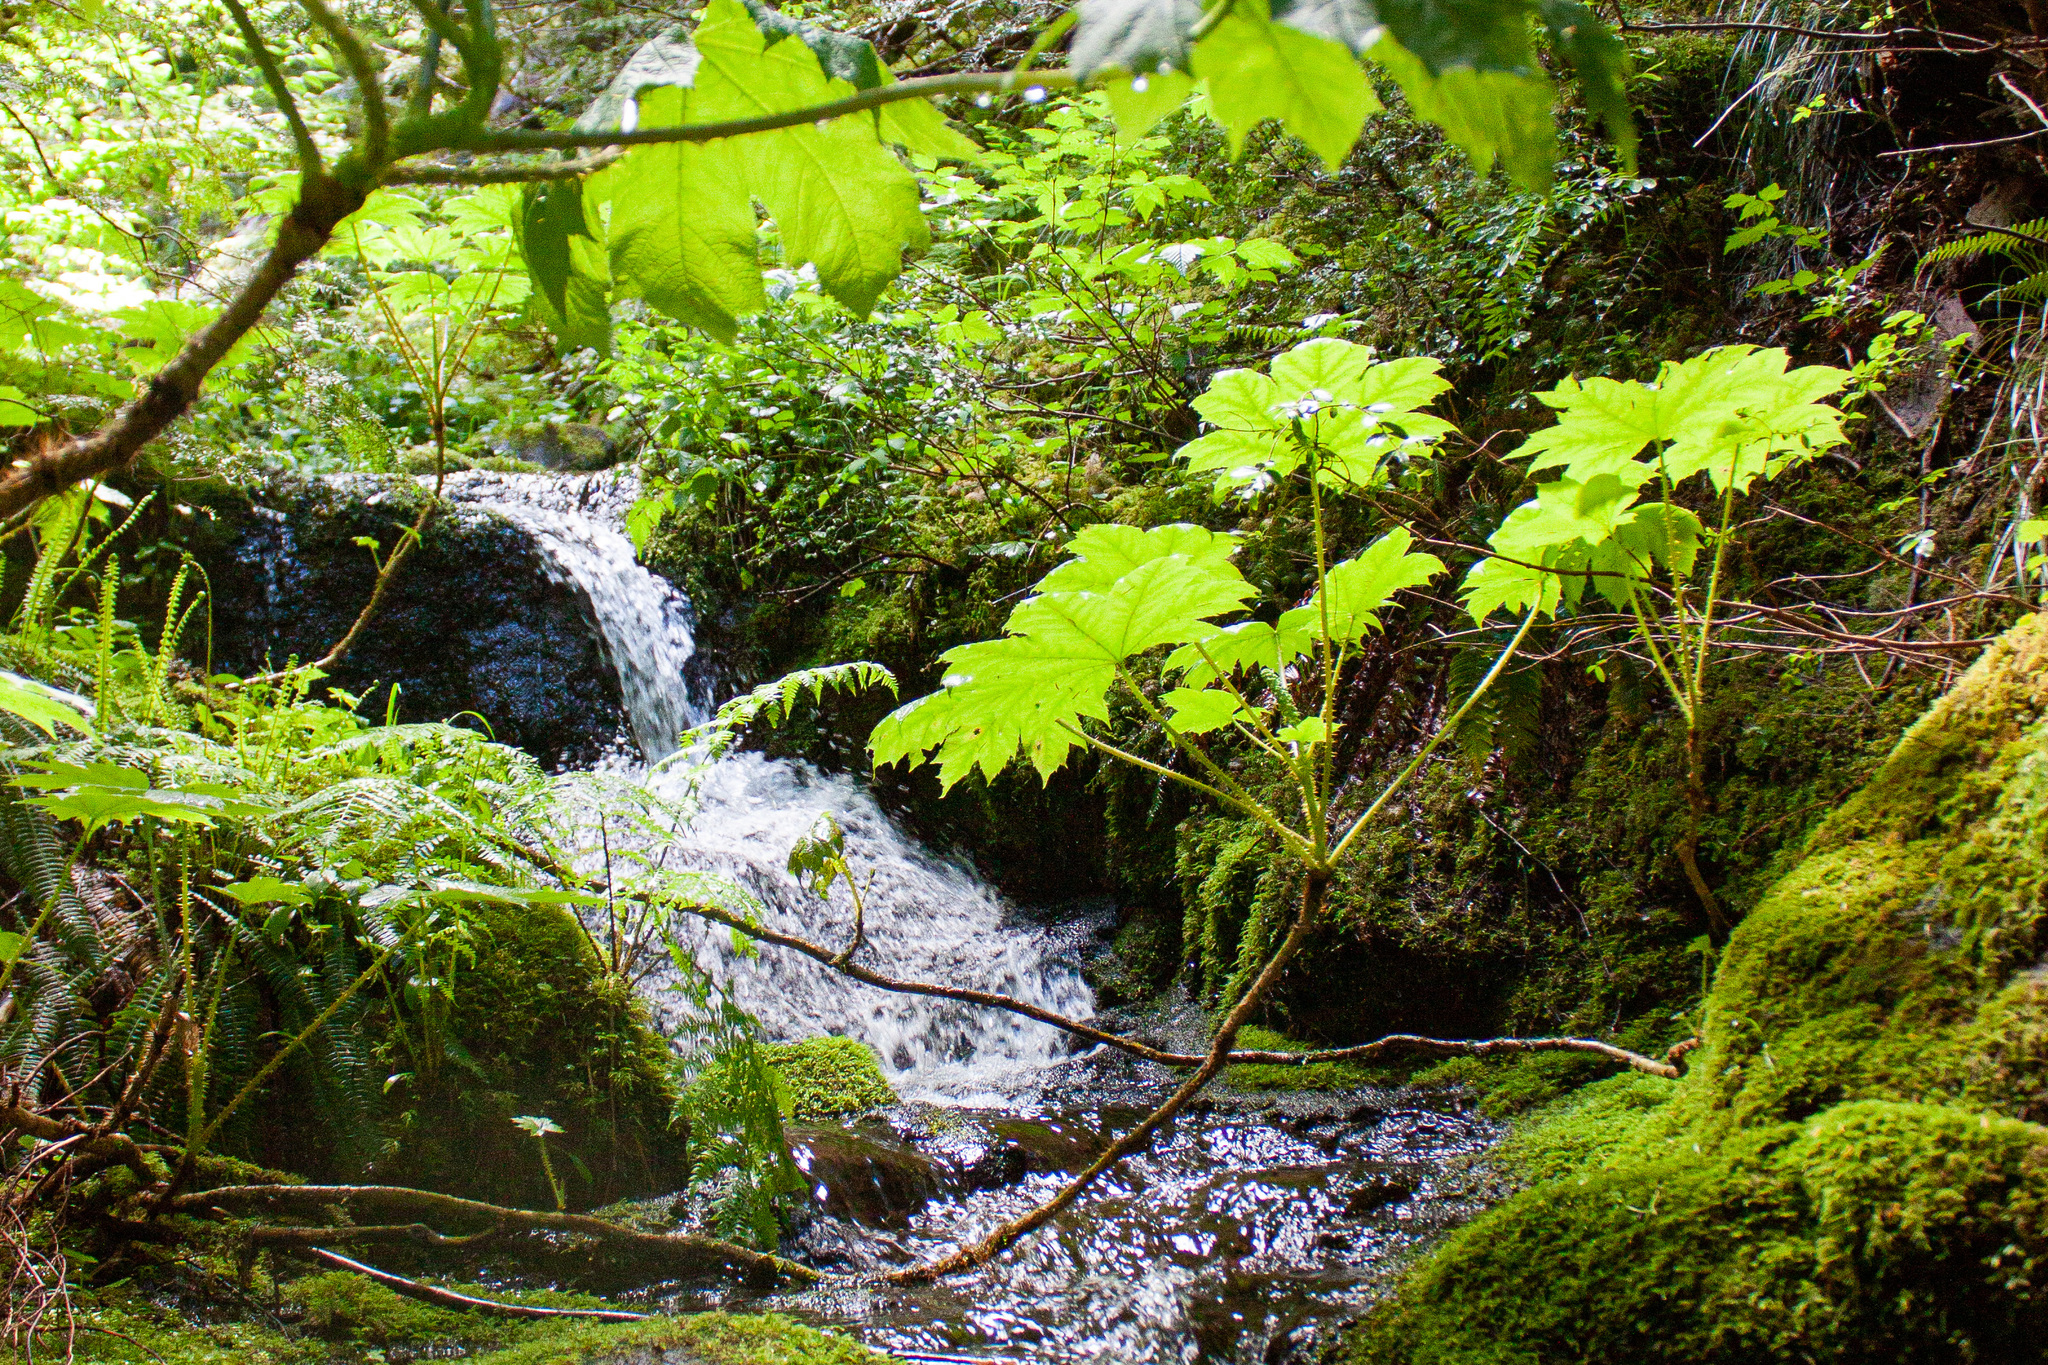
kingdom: Plantae
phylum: Tracheophyta
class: Magnoliopsida
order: Apiales
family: Araliaceae
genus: Oplopanax
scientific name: Oplopanax horridus
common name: Devil's walking-stick
